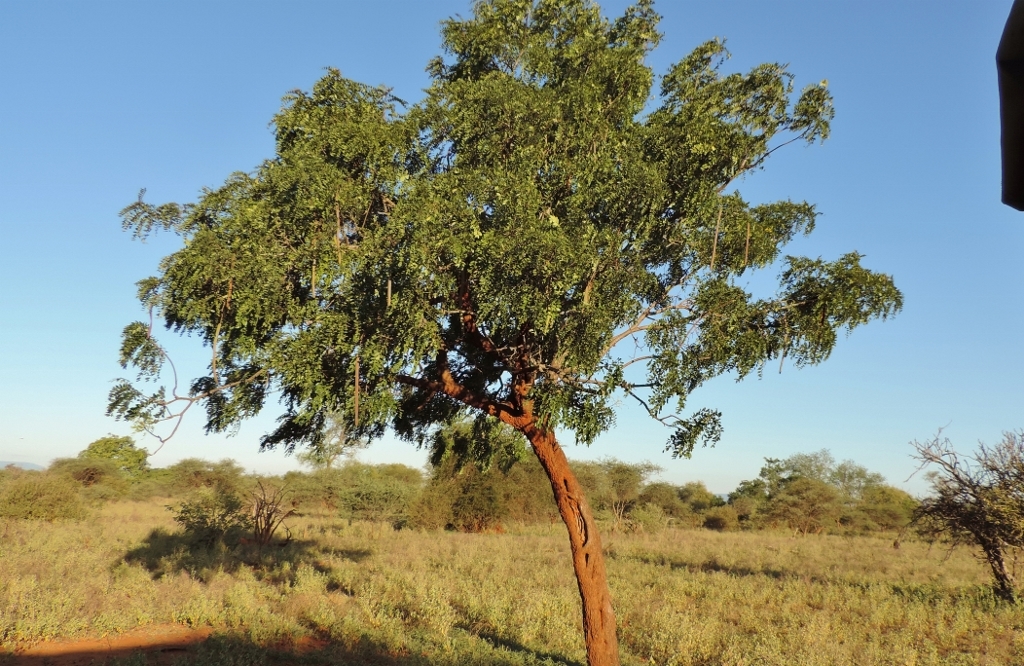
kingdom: Plantae
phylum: Tracheophyta
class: Magnoliopsida
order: Fabales
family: Fabaceae
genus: Cassia
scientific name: Cassia abbreviata
